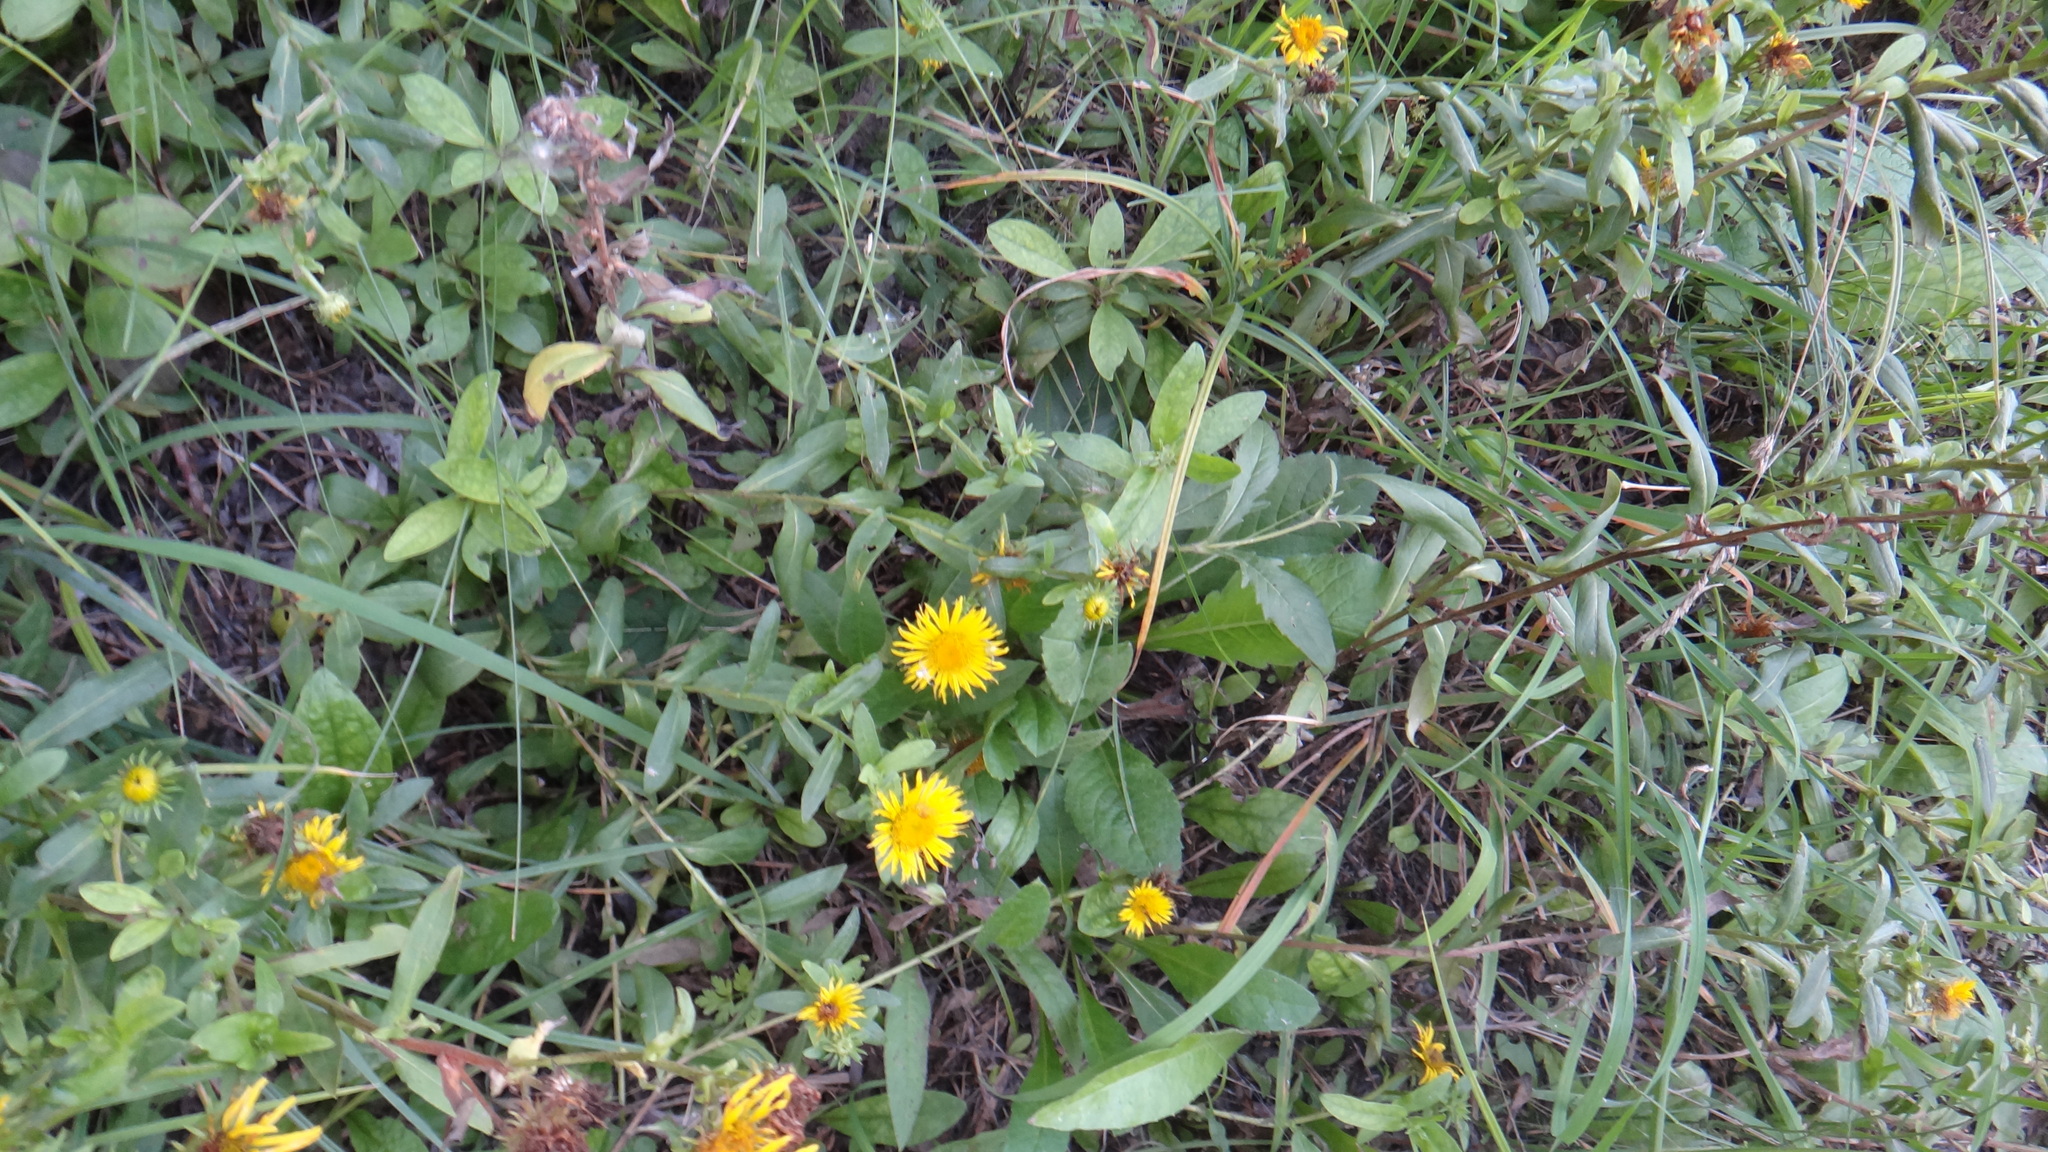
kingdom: Plantae
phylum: Tracheophyta
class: Magnoliopsida
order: Asterales
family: Asteraceae
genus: Pentanema
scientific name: Pentanema britannicum
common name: British elecampane
